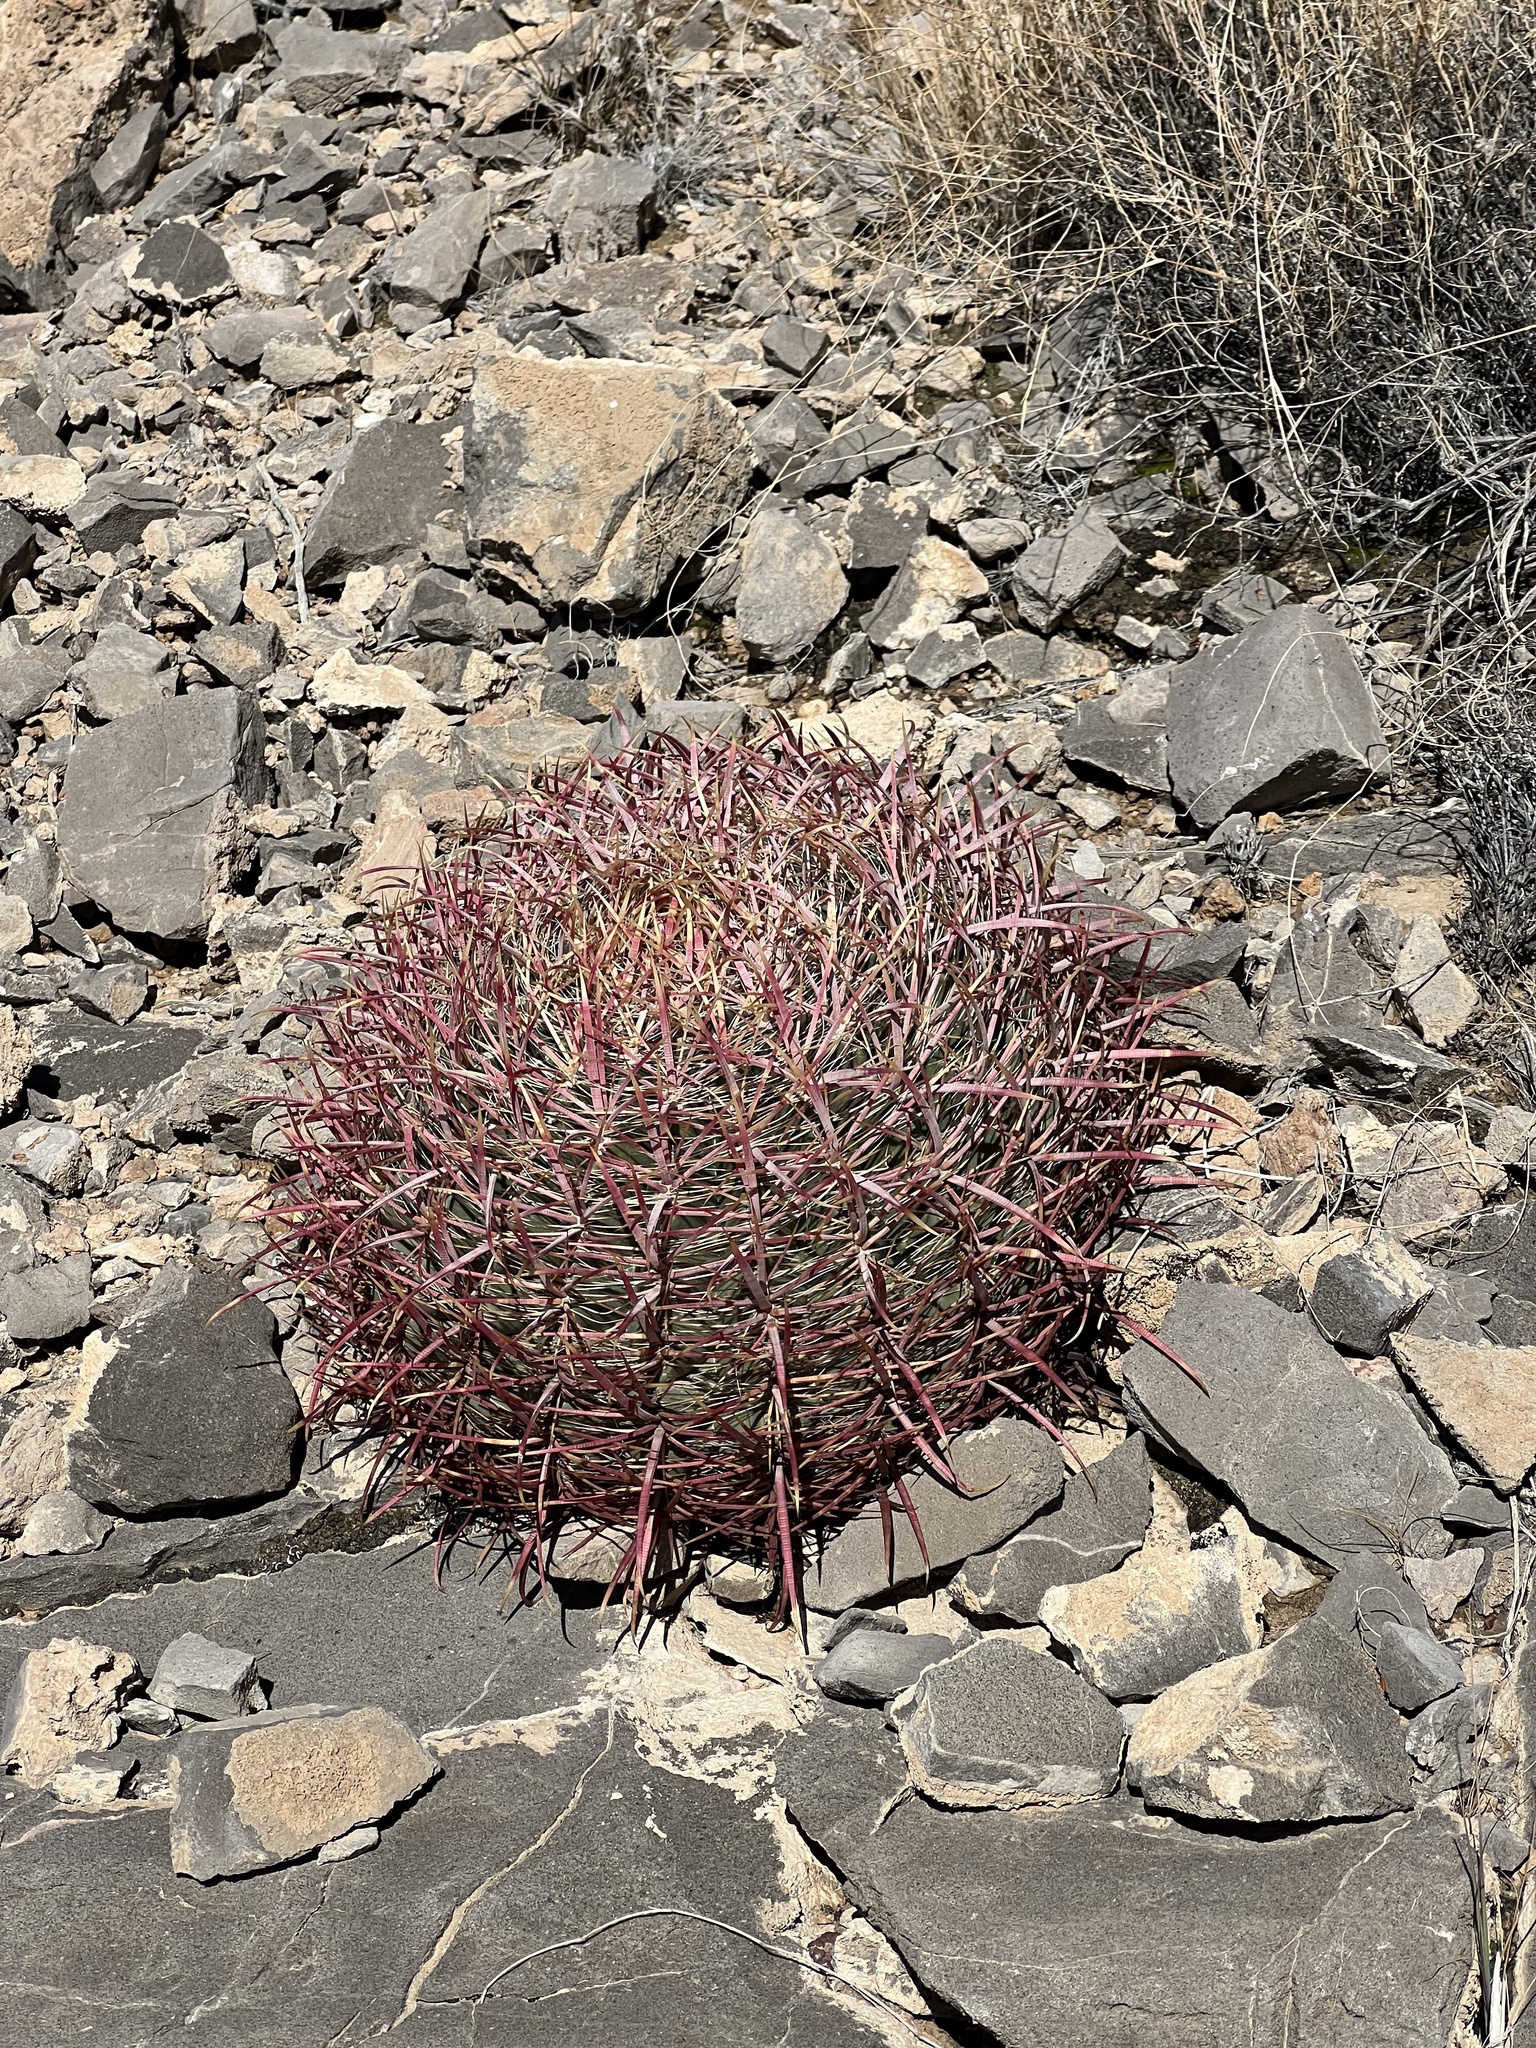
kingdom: Plantae
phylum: Tracheophyta
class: Magnoliopsida
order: Caryophyllales
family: Cactaceae
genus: Ferocactus
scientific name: Ferocactus cylindraceus
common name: California barrel cactus
